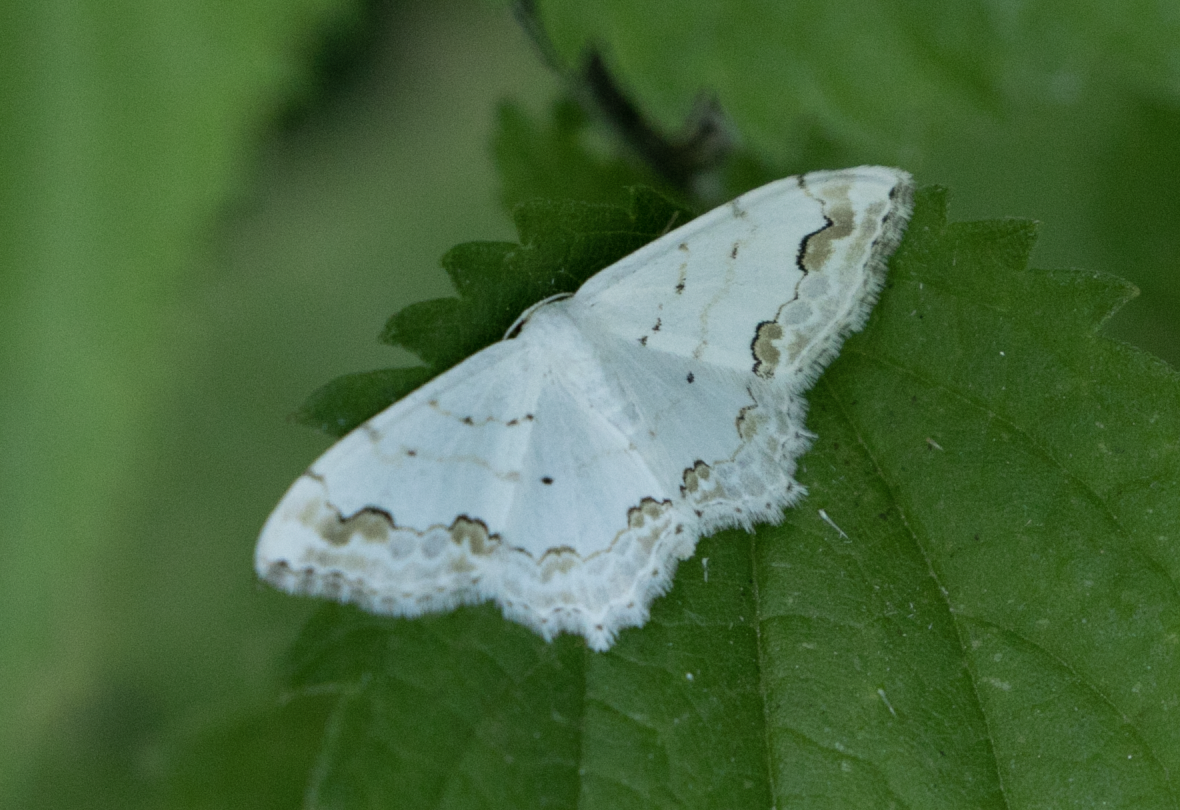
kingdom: Animalia
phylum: Arthropoda
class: Insecta
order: Lepidoptera
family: Geometridae
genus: Scopula
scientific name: Scopula ornata
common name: Lace border
